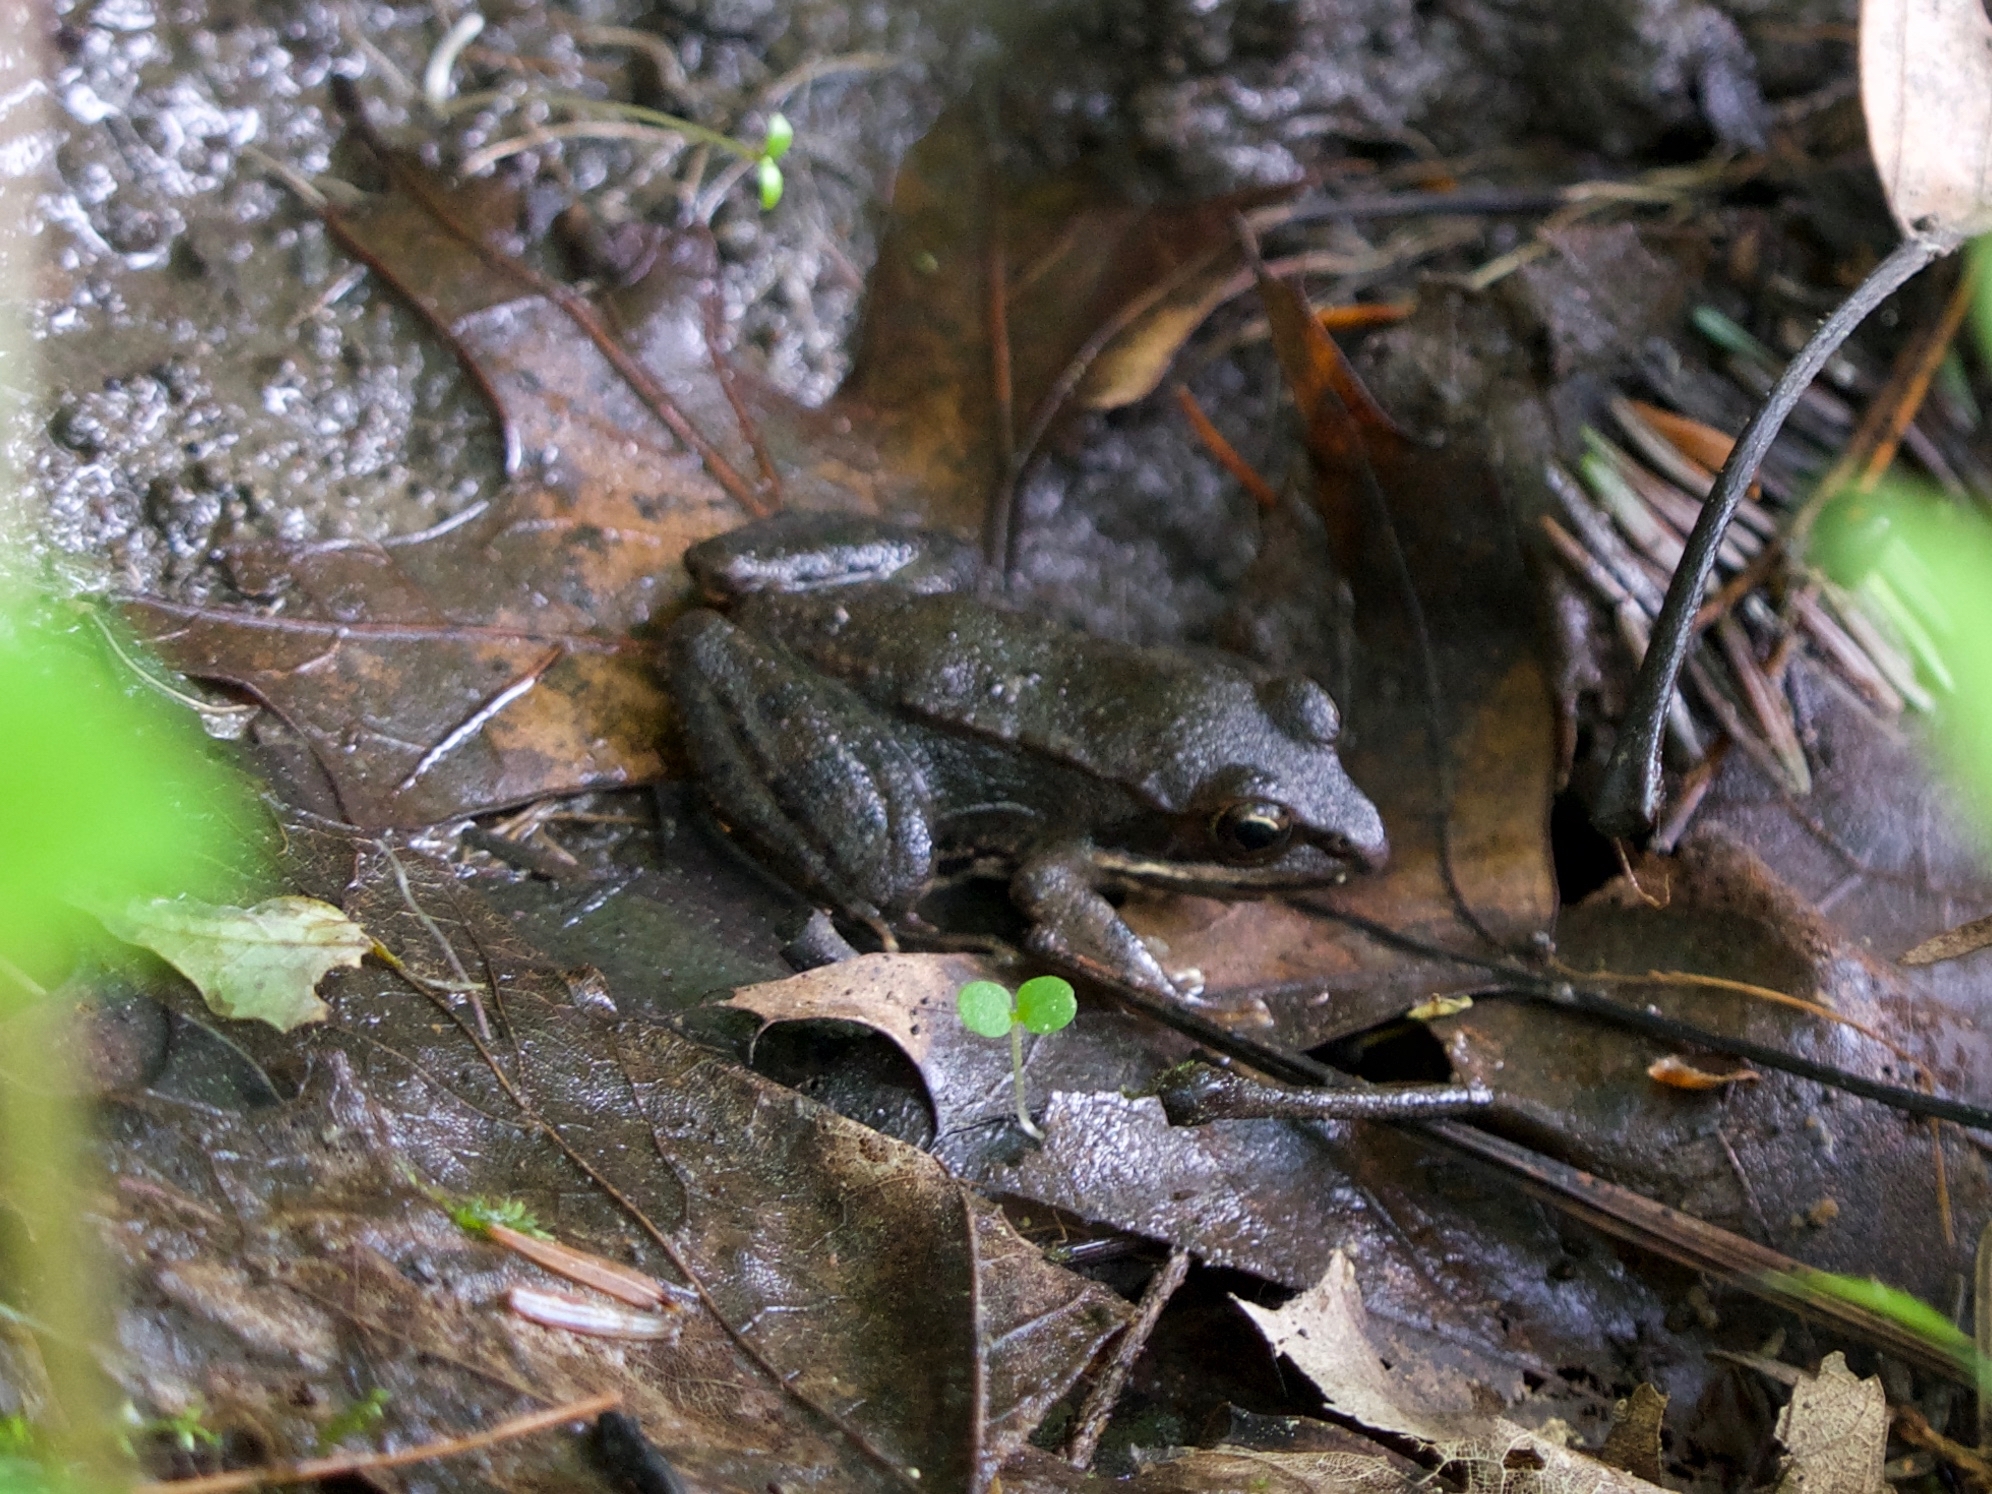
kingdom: Animalia
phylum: Chordata
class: Amphibia
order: Anura
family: Ranidae
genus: Lithobates
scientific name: Lithobates sylvaticus
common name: Wood frog
